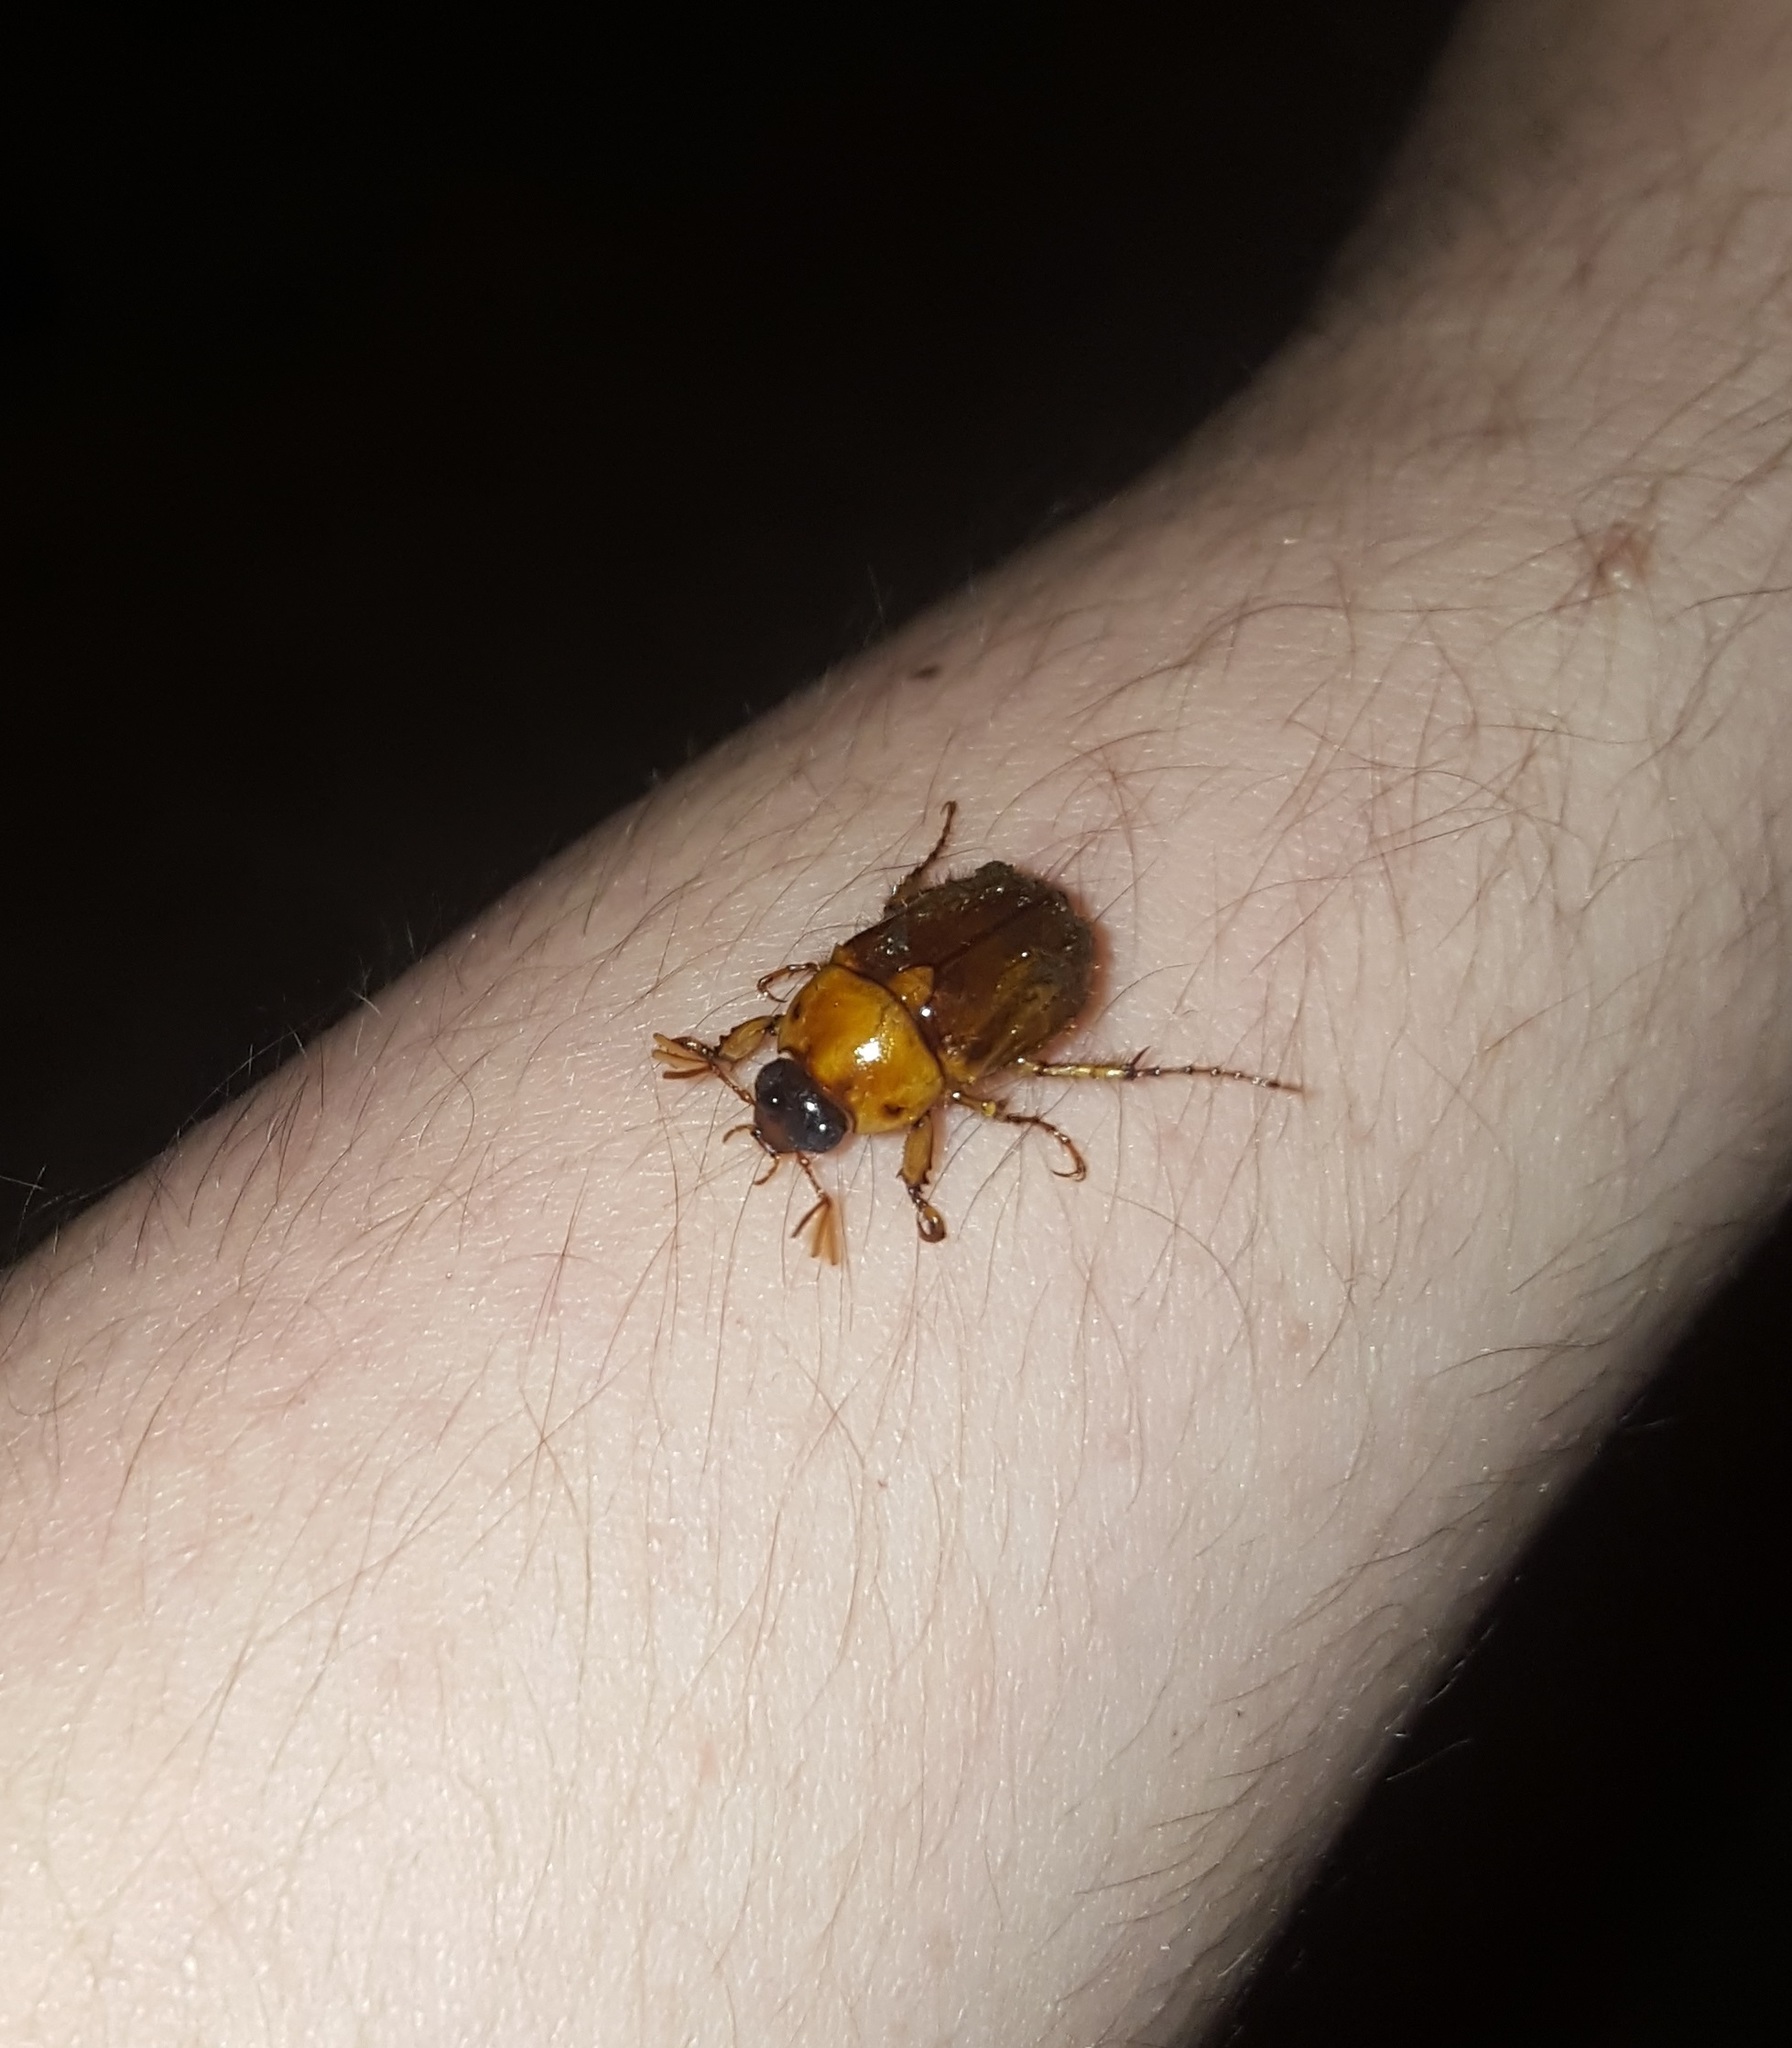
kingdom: Animalia
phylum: Arthropoda
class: Insecta
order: Coleoptera
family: Scarabaeidae
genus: Cyclocephala
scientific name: Cyclocephala borealis
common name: Northern masked chafer
